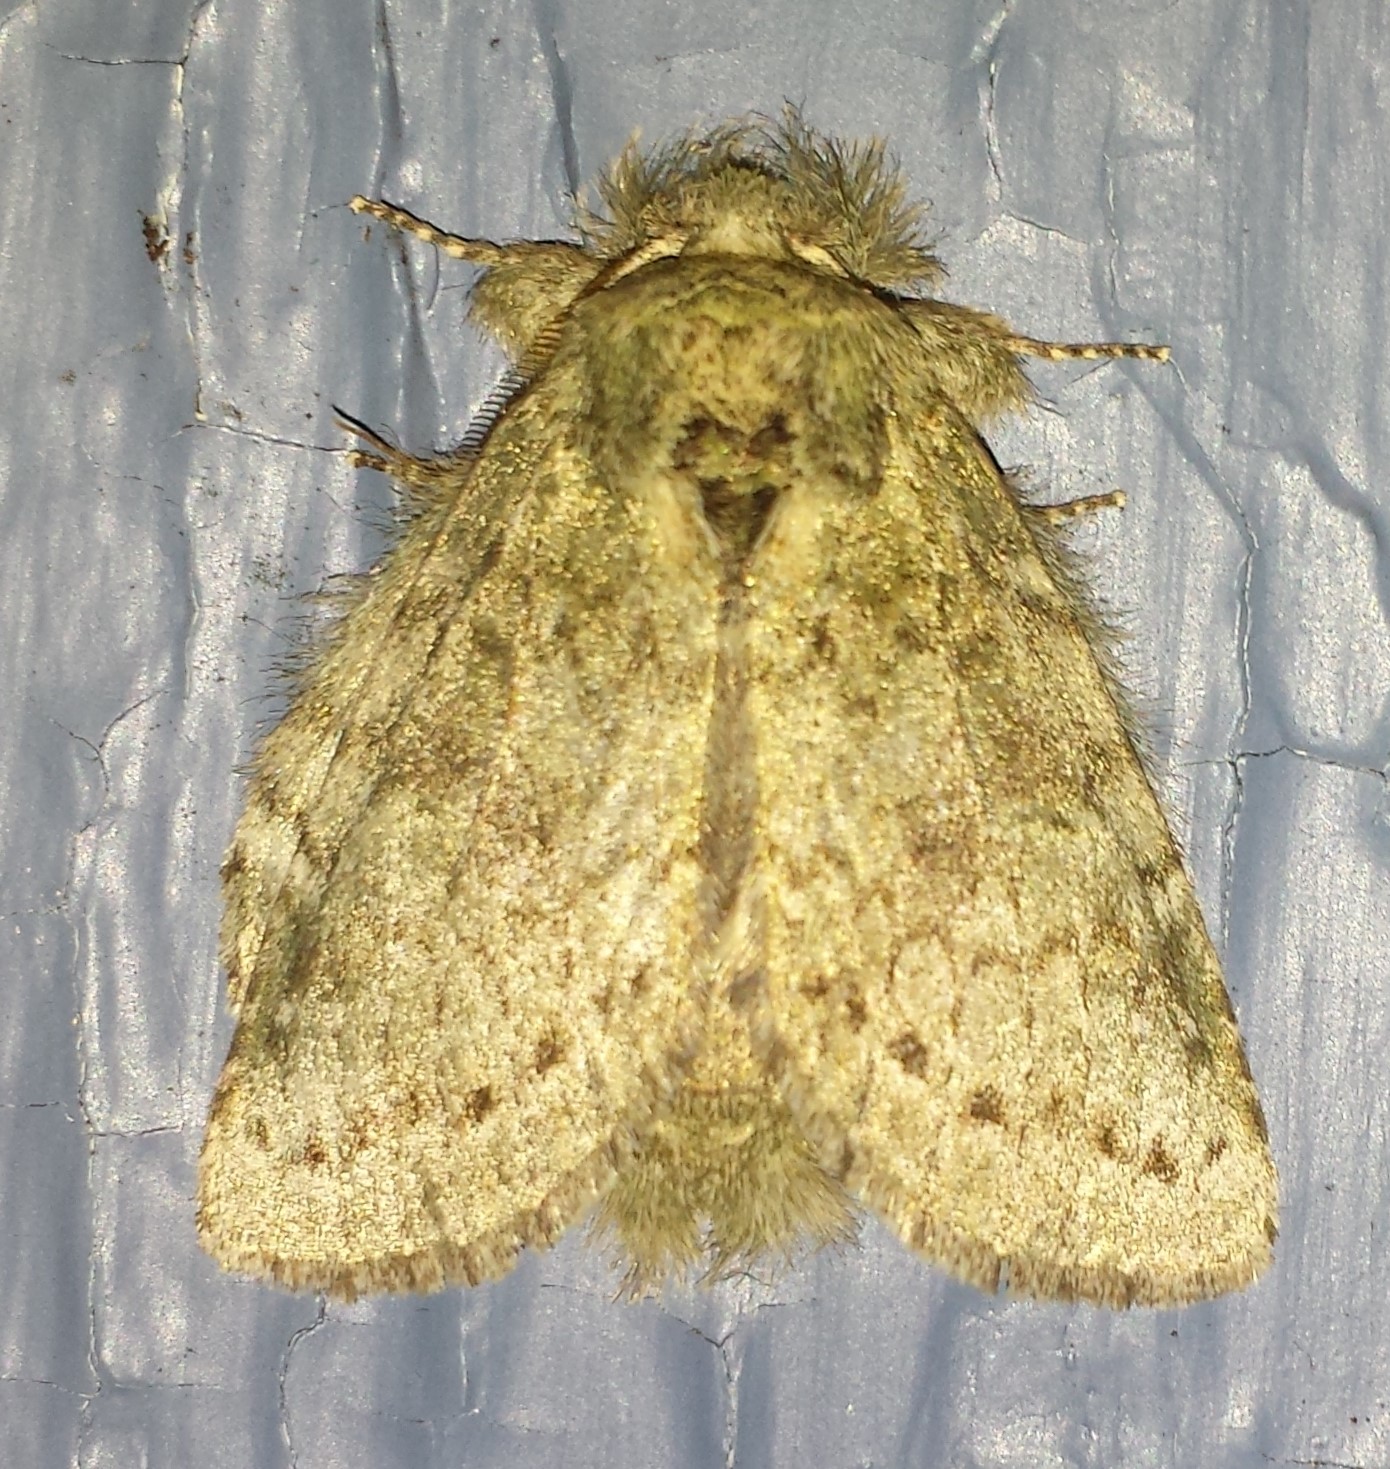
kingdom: Animalia
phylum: Arthropoda
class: Insecta
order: Lepidoptera
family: Notodontidae
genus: Disphragis
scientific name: Disphragis Cecrita guttivitta
